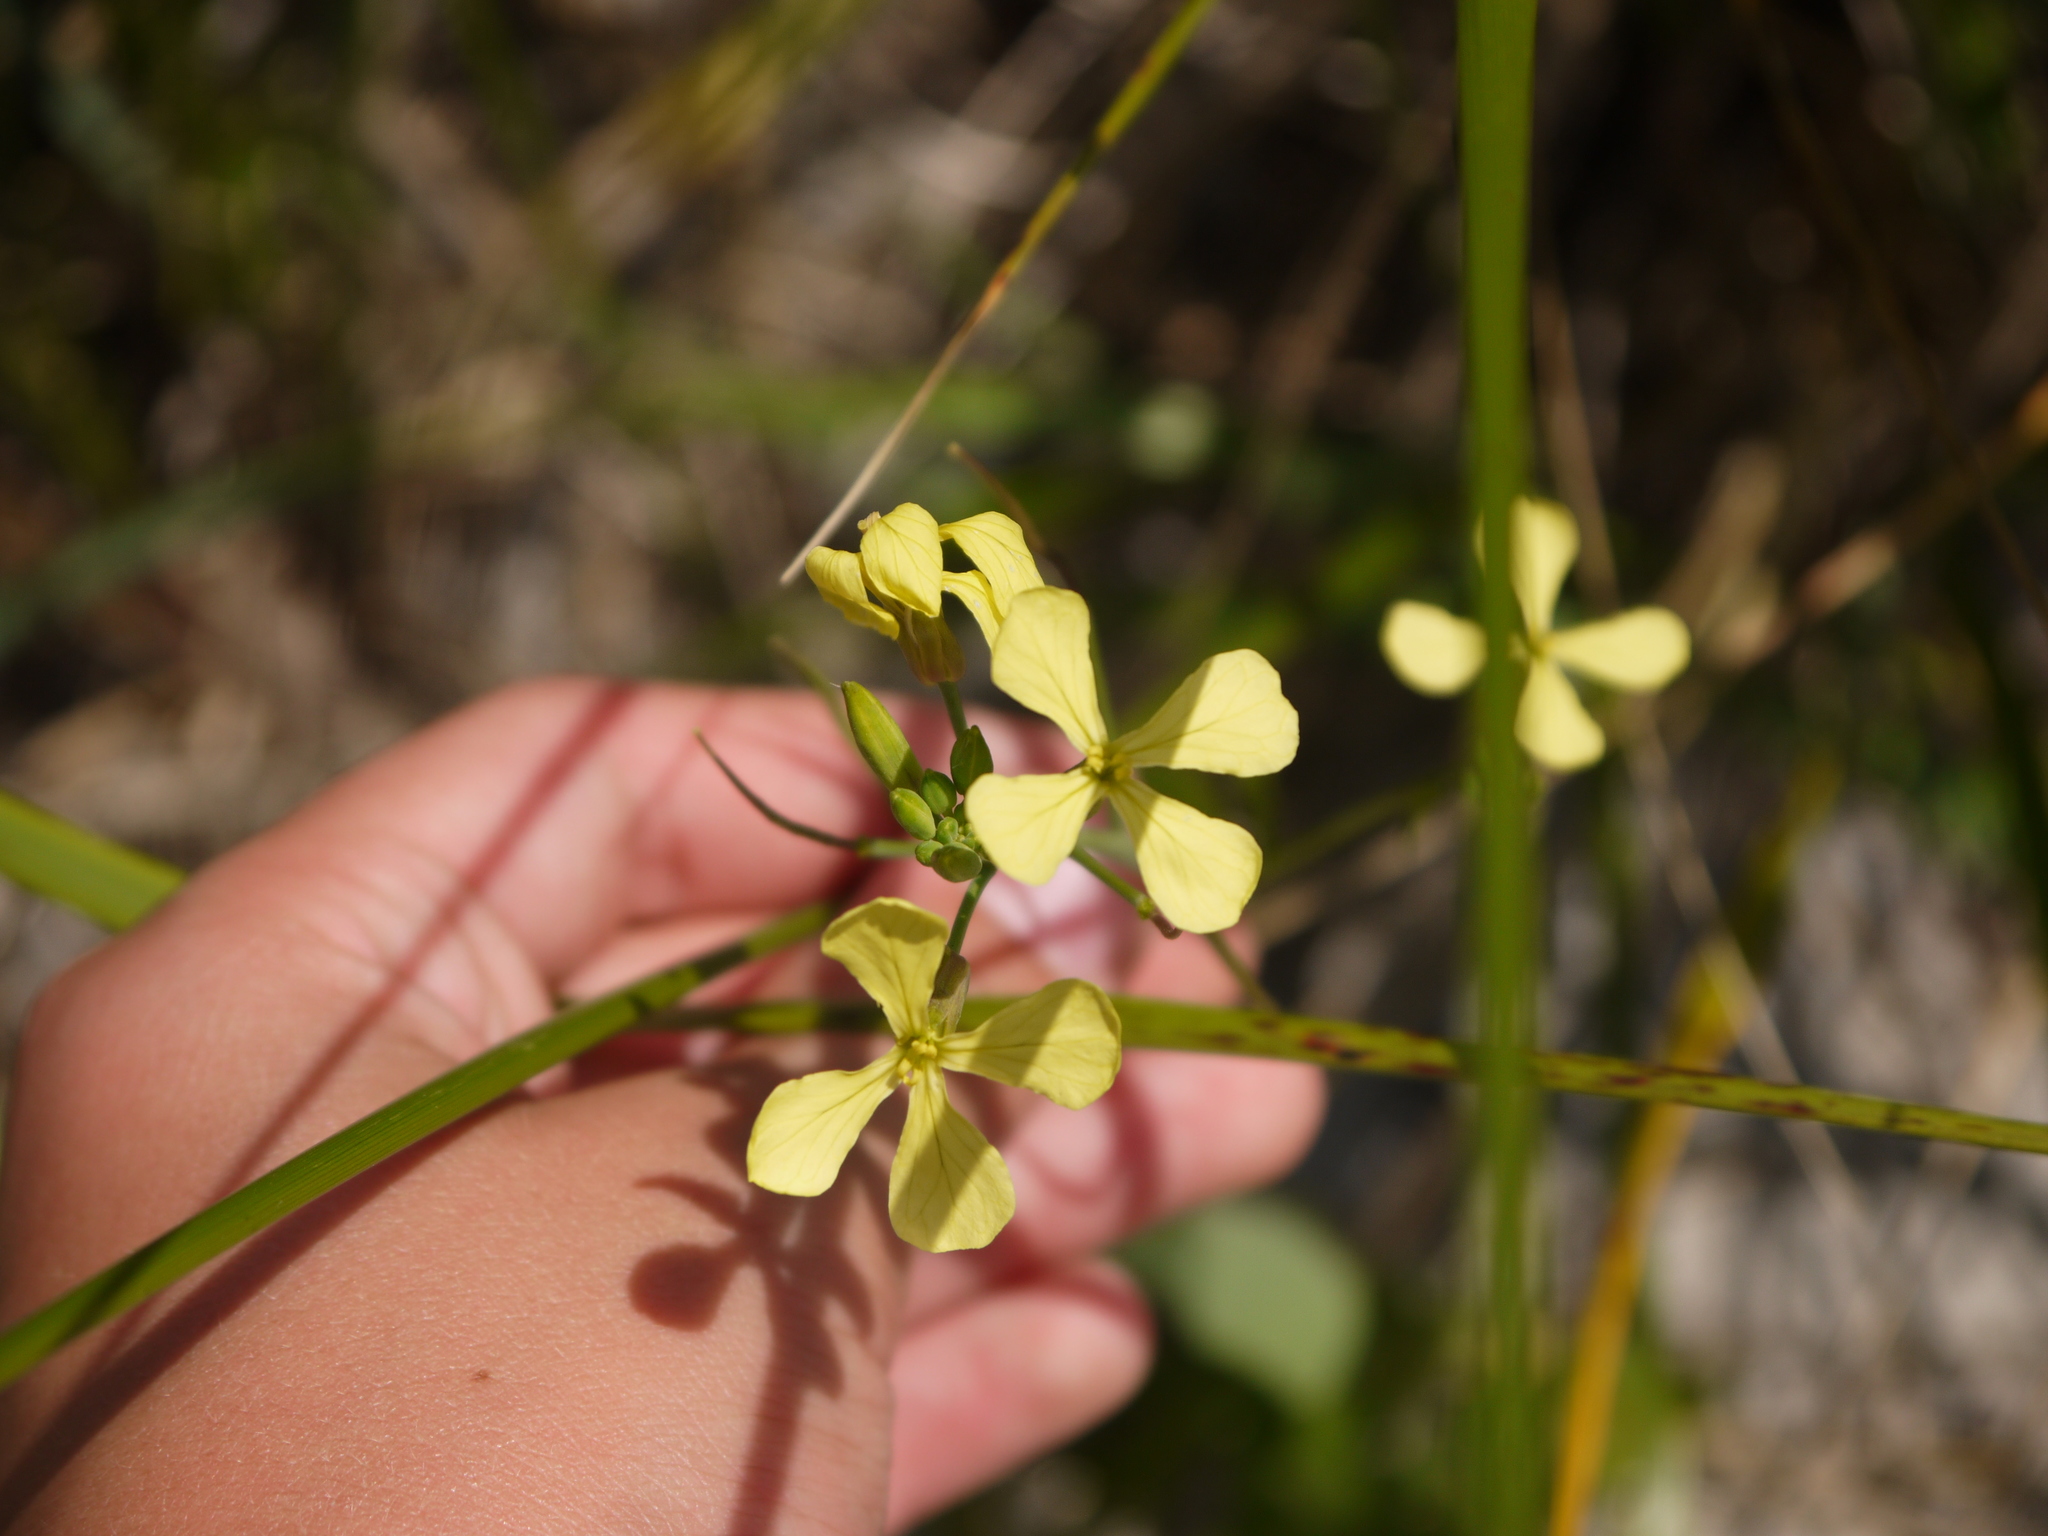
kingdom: Plantae
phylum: Tracheophyta
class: Magnoliopsida
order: Brassicales
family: Brassicaceae
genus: Raphanus
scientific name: Raphanus raphanistrum
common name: Wild radish
